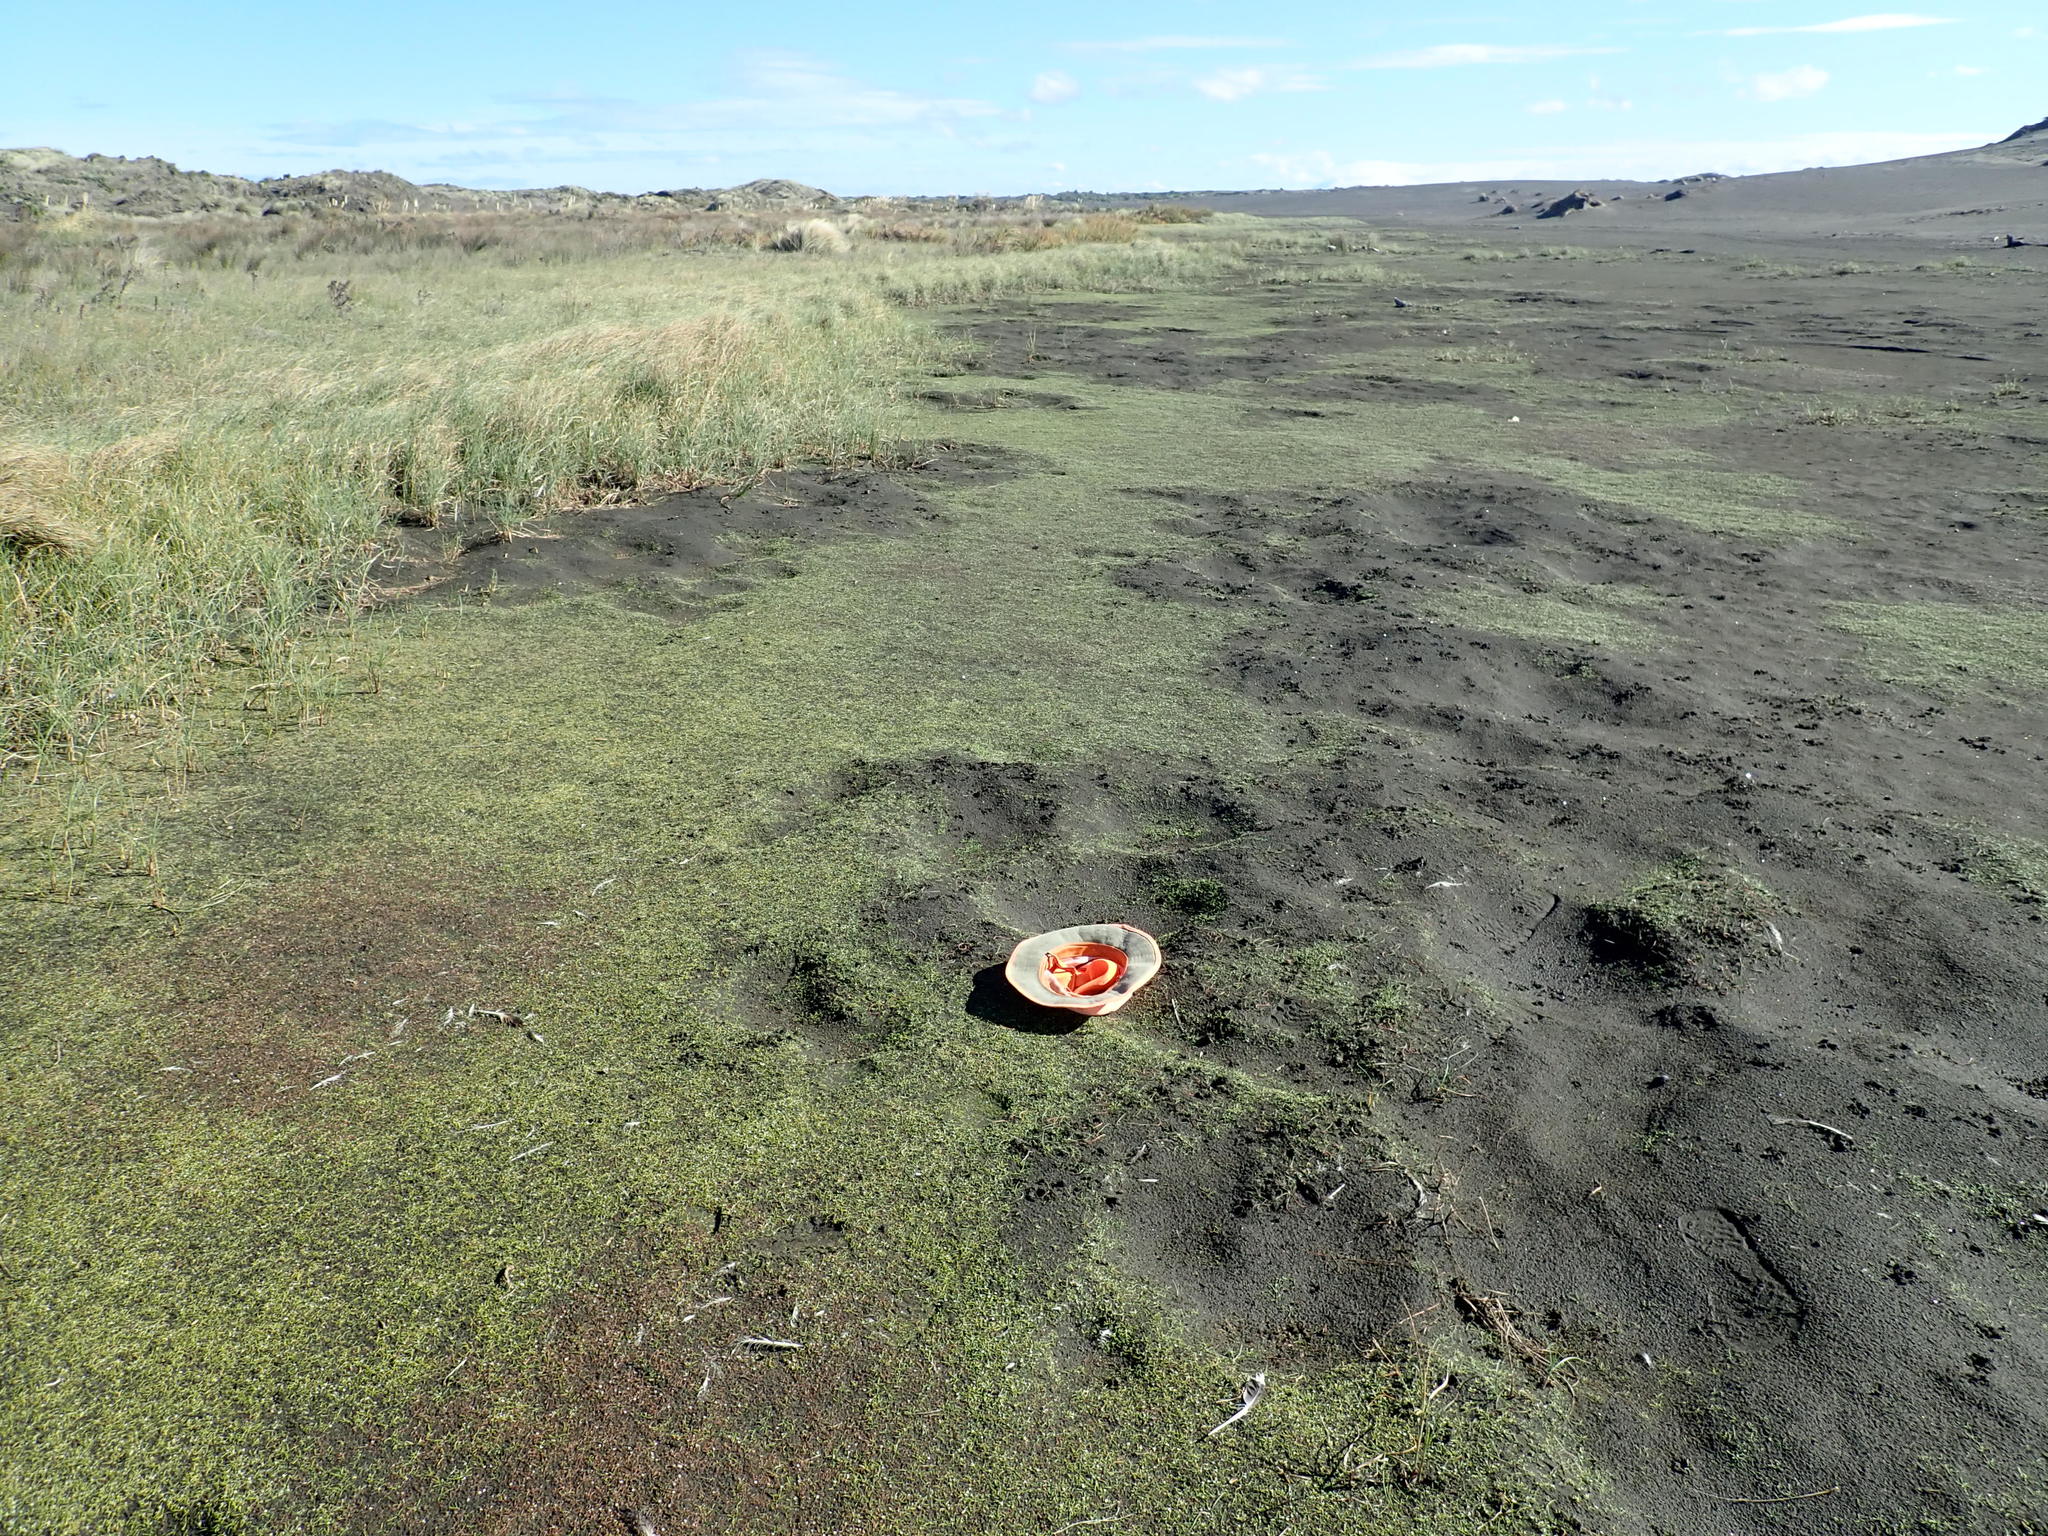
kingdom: Plantae
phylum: Tracheophyta
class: Liliopsida
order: Alismatales
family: Juncaginaceae
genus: Triglochin
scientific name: Triglochin striata
